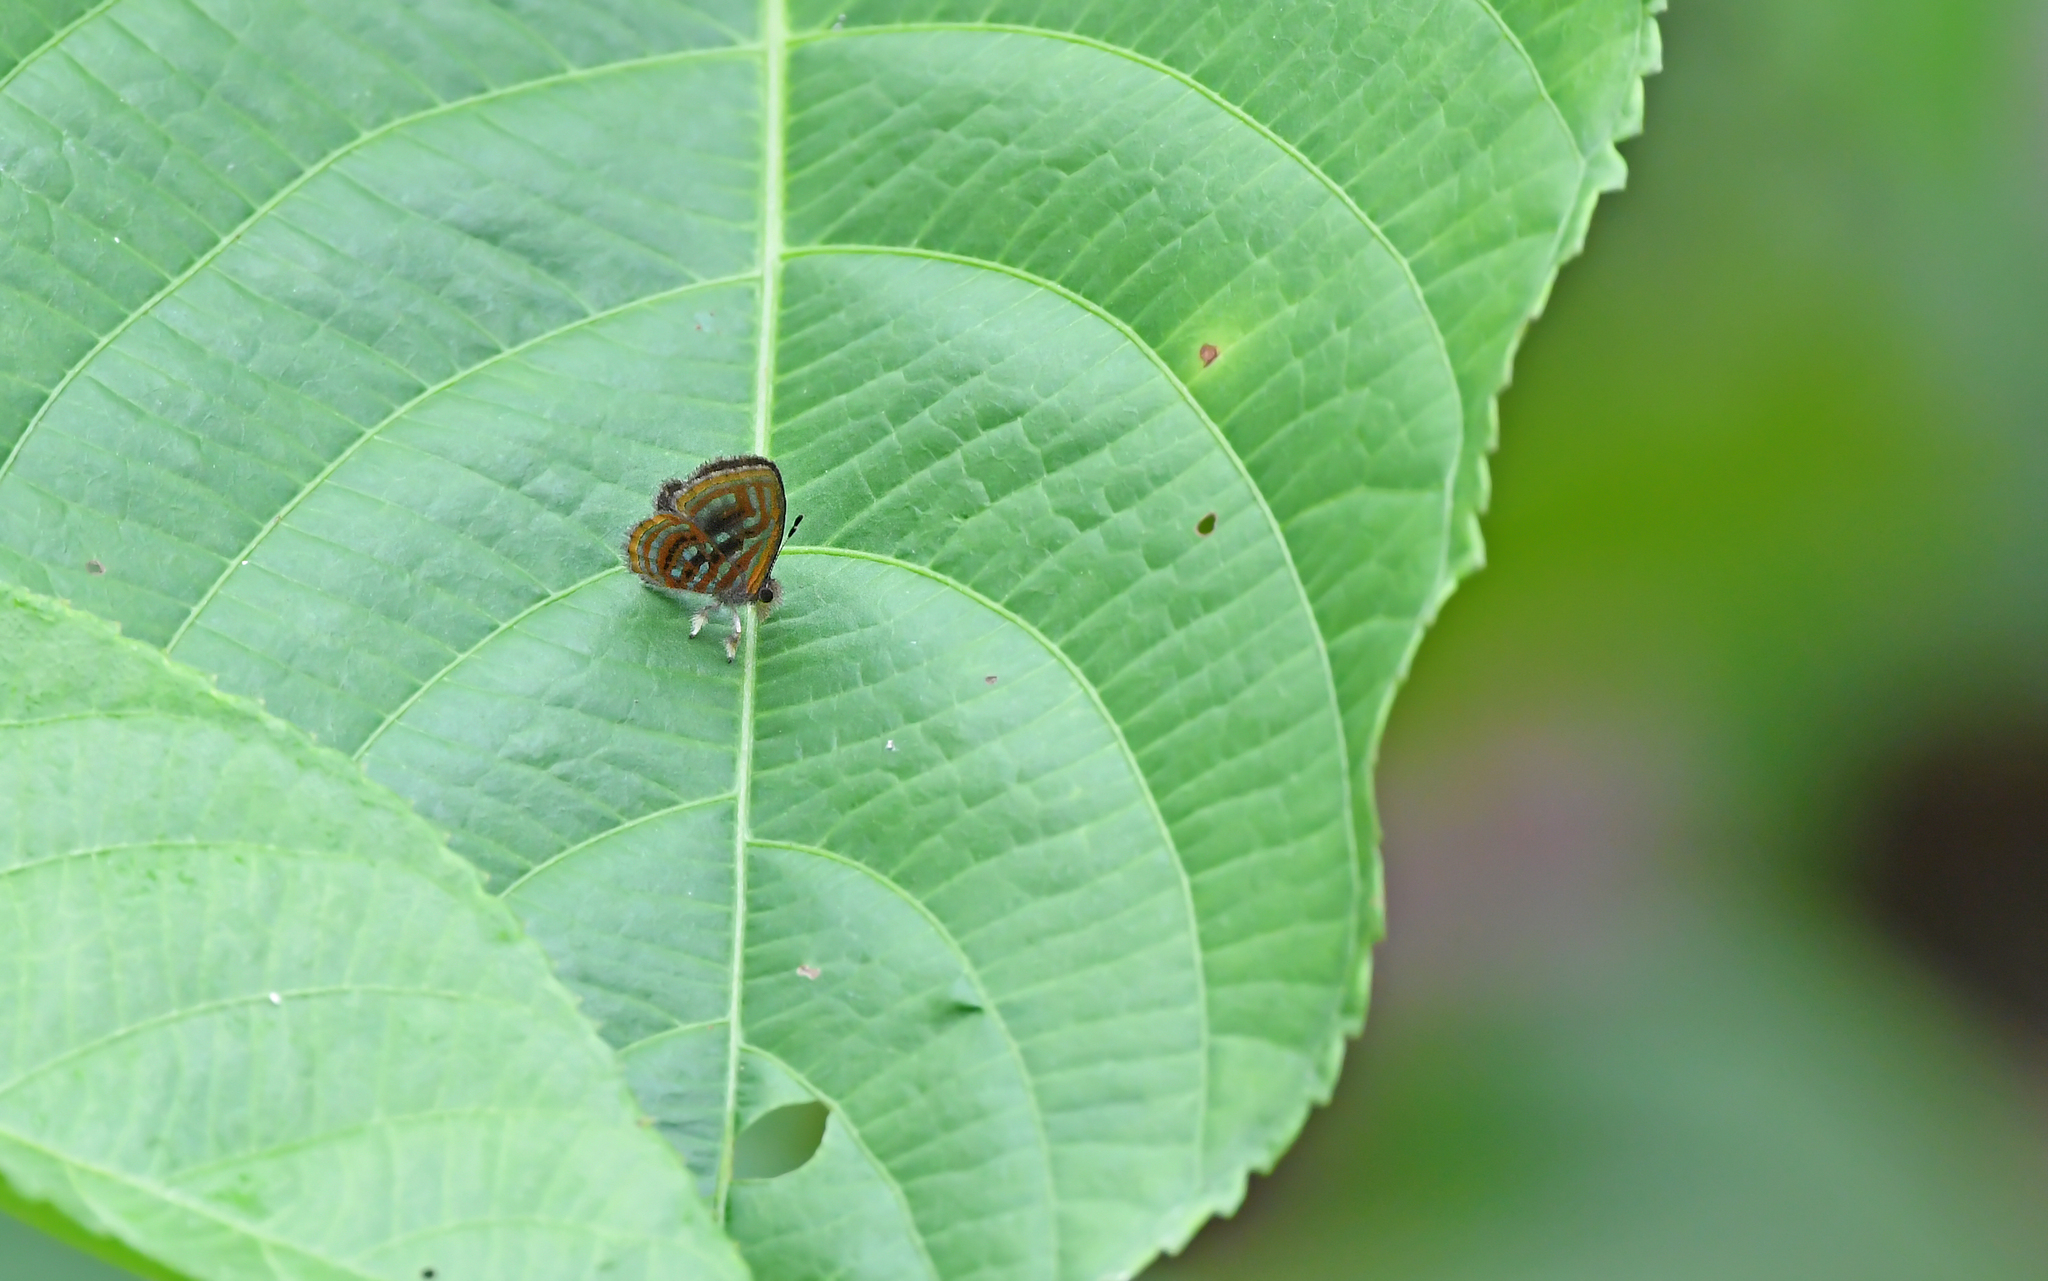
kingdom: Animalia
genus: Charis
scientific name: Charis Sarota acantus
